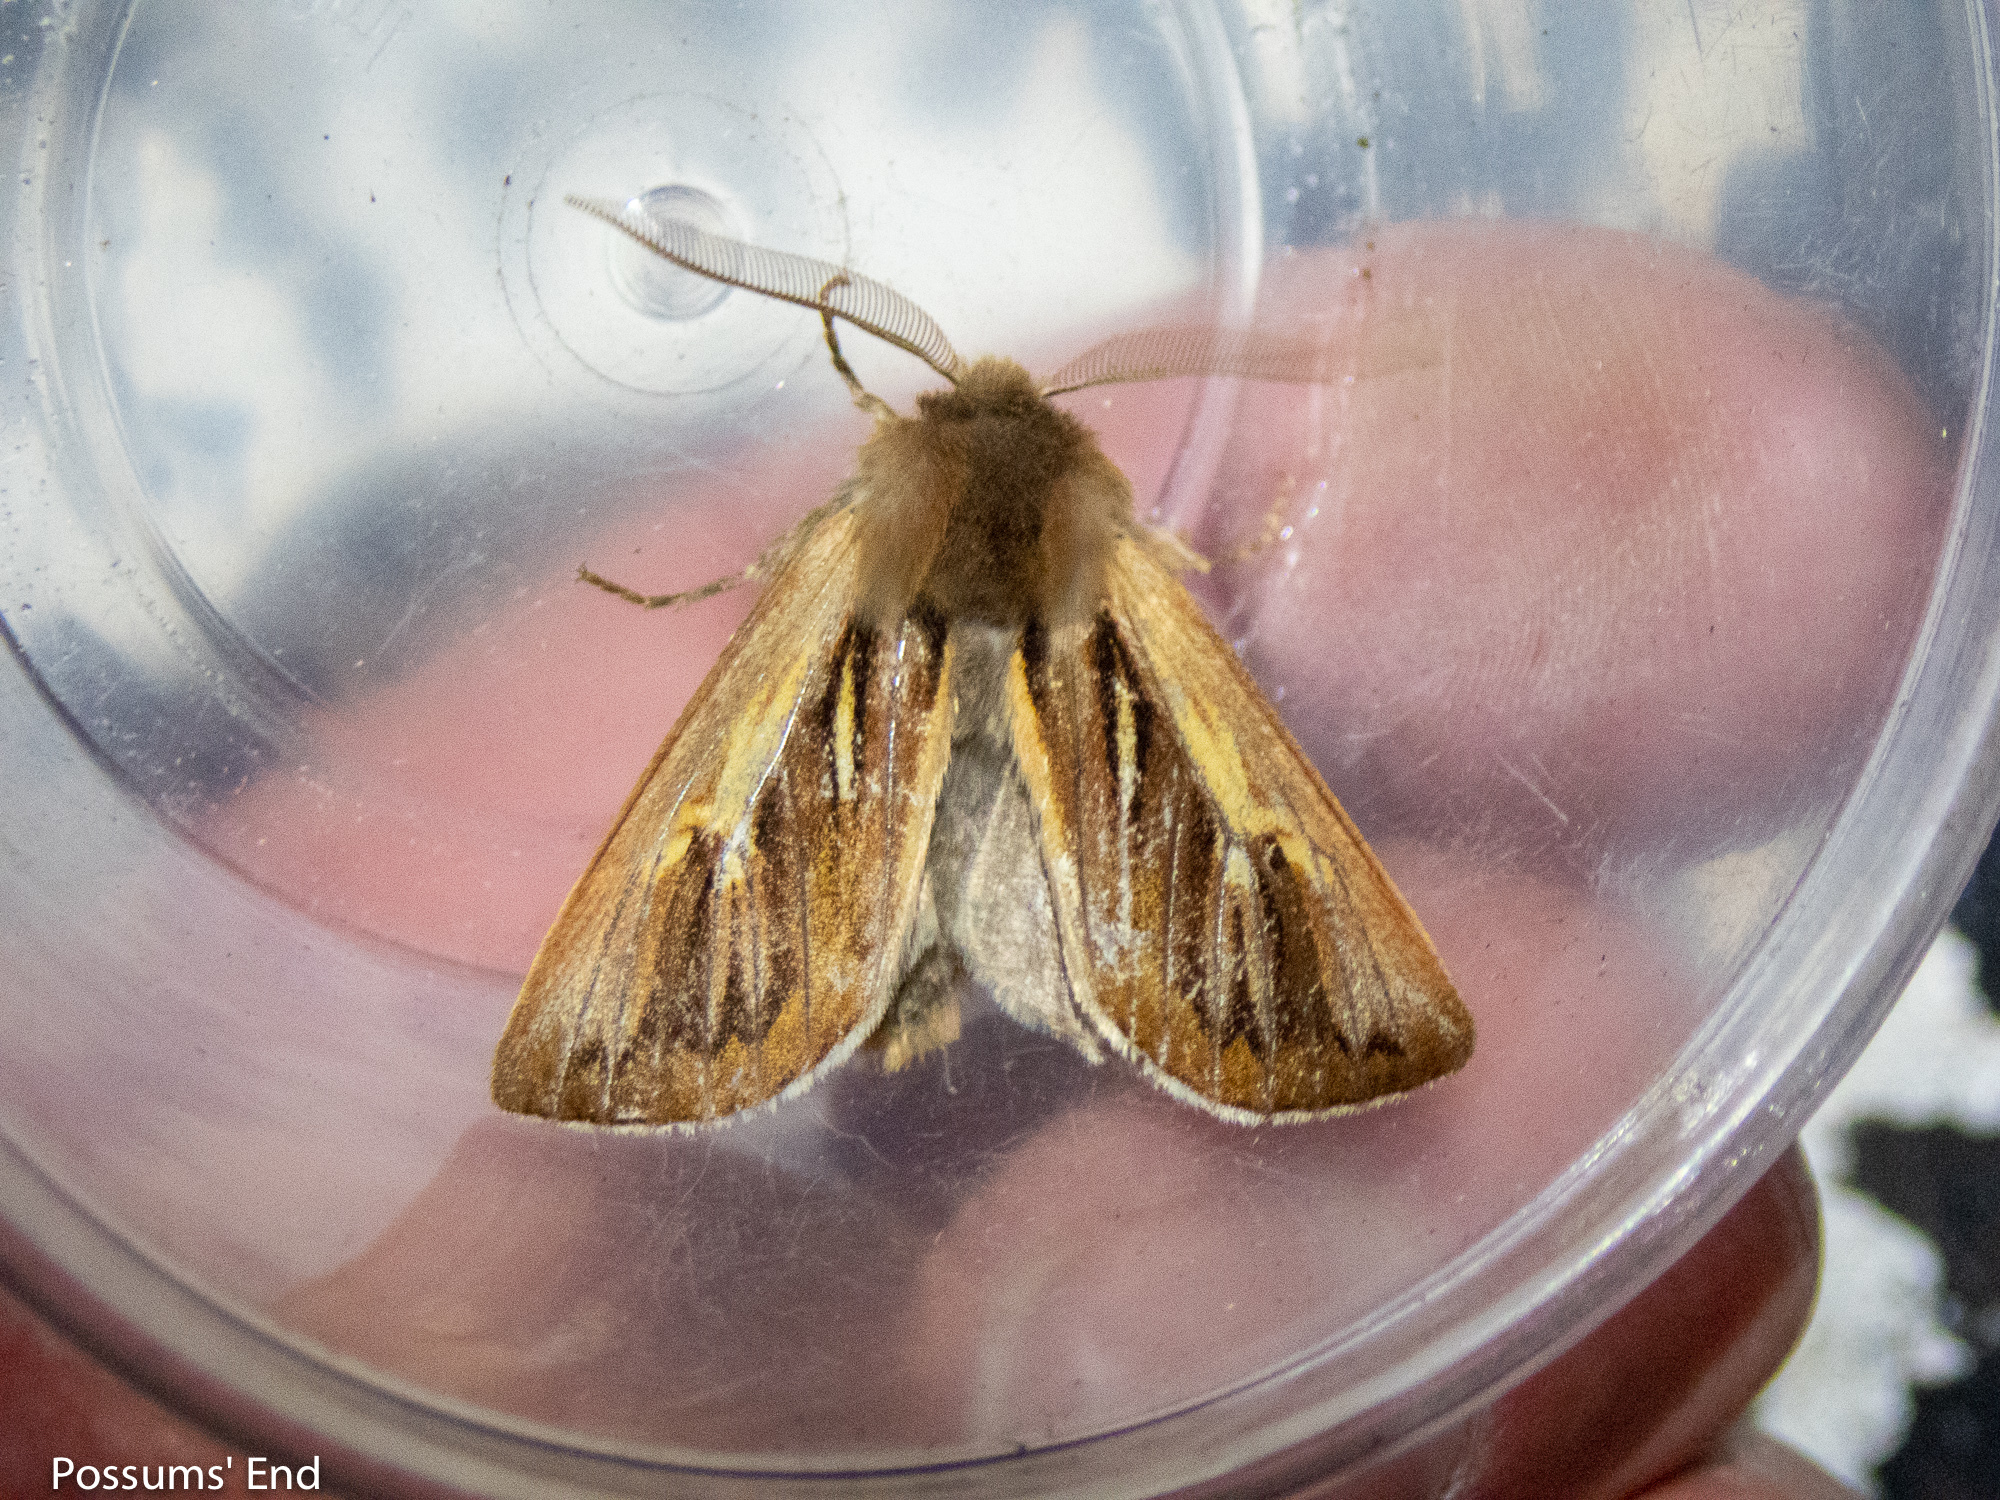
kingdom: Animalia
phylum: Arthropoda
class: Insecta
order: Lepidoptera
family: Noctuidae
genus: Ichneutica
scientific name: Ichneutica dione
